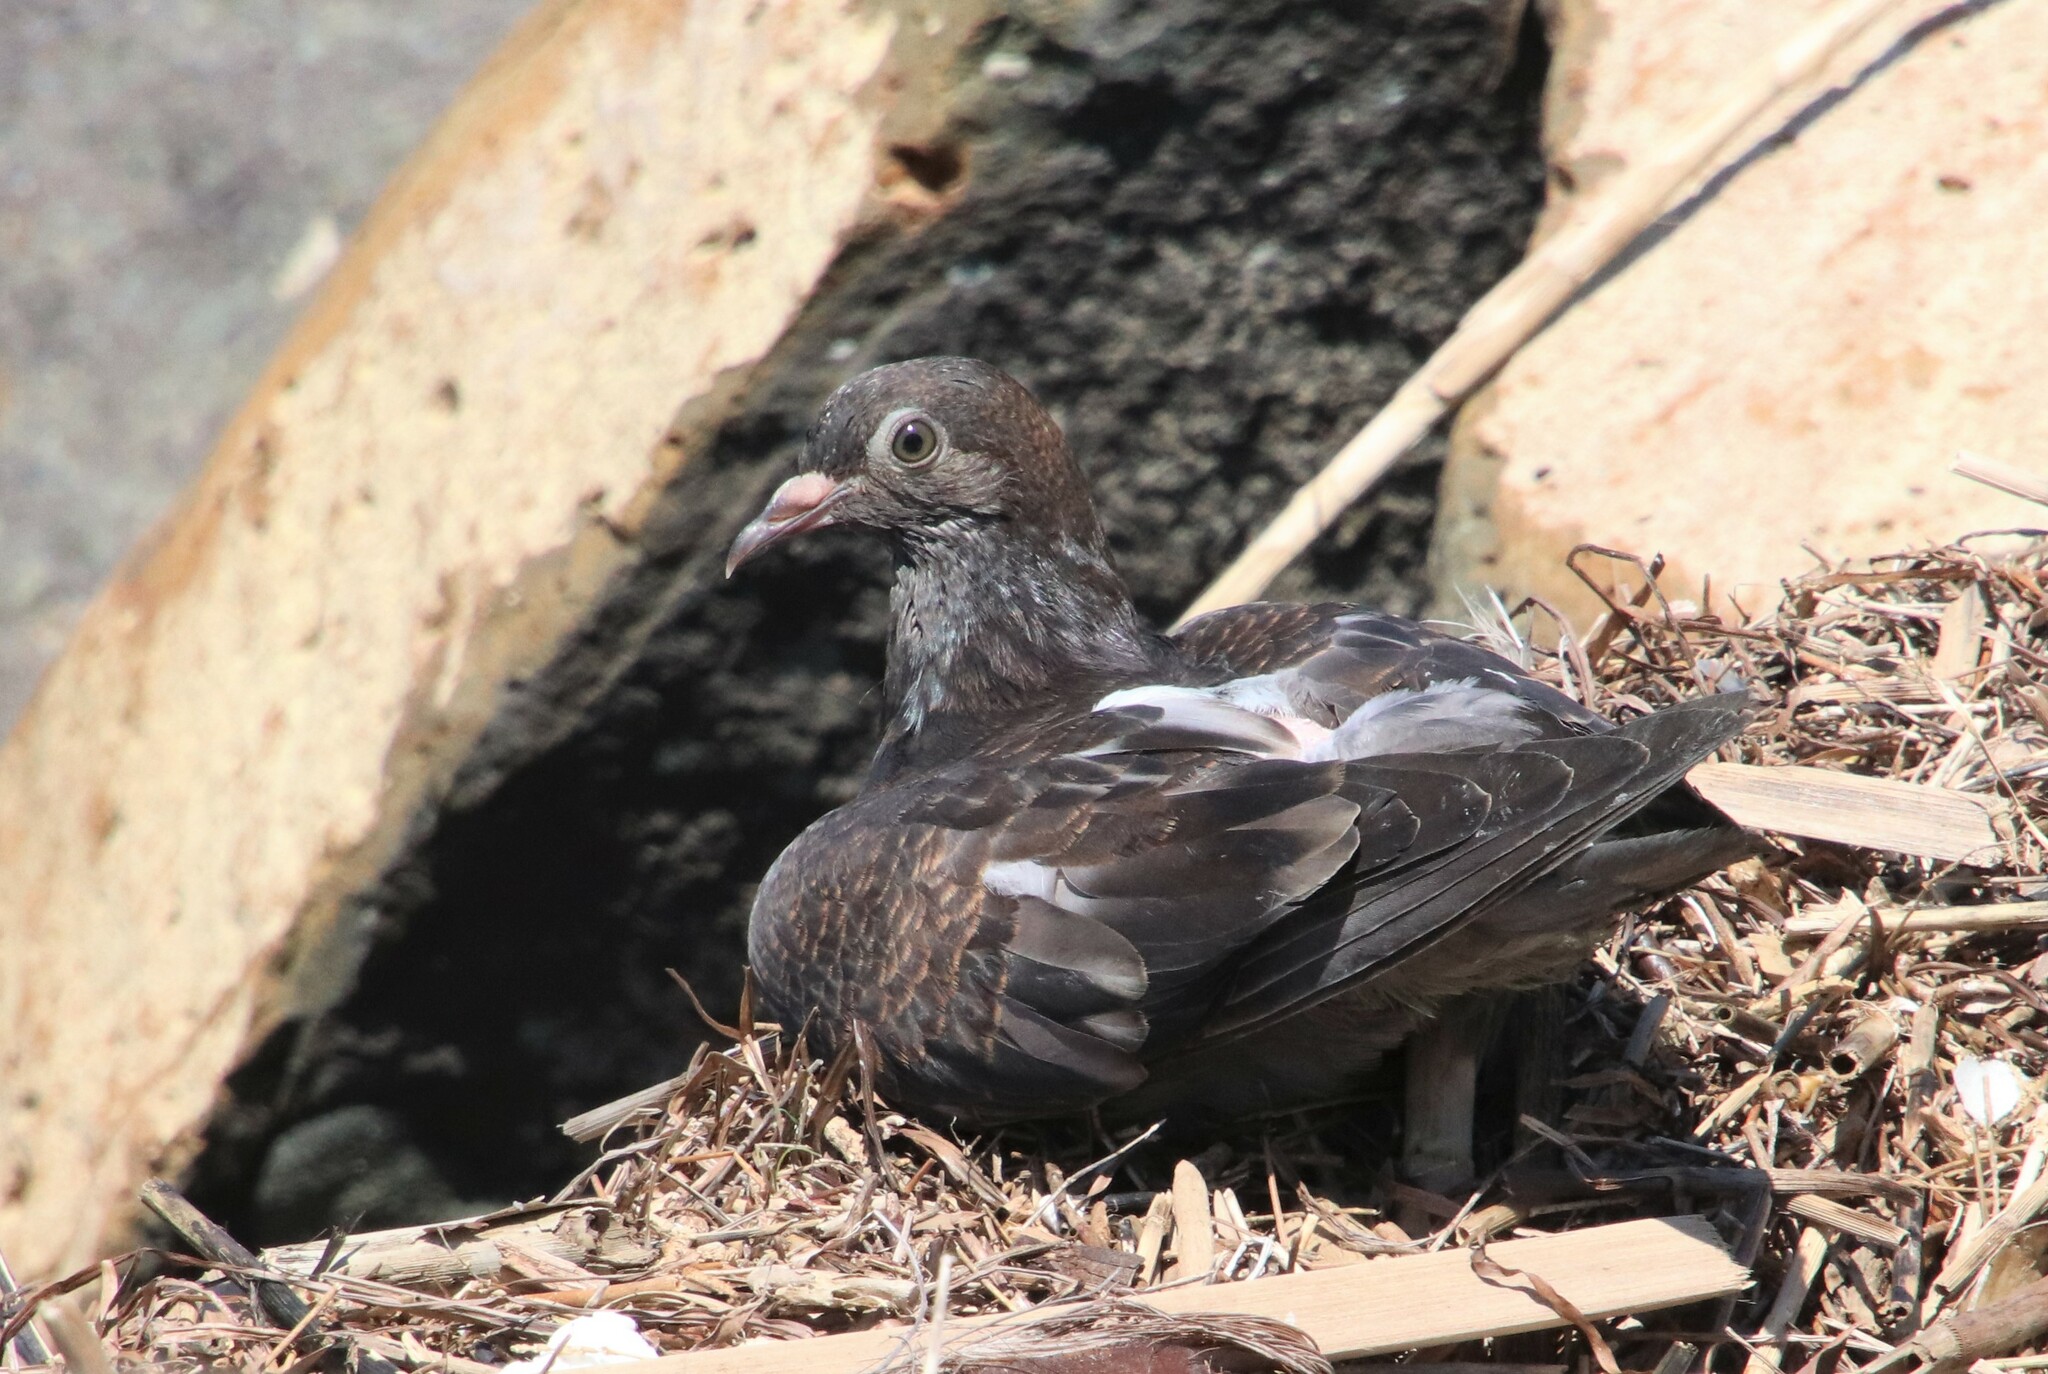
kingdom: Animalia
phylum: Chordata
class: Aves
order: Columbiformes
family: Columbidae
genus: Columba
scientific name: Columba livia
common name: Rock pigeon
